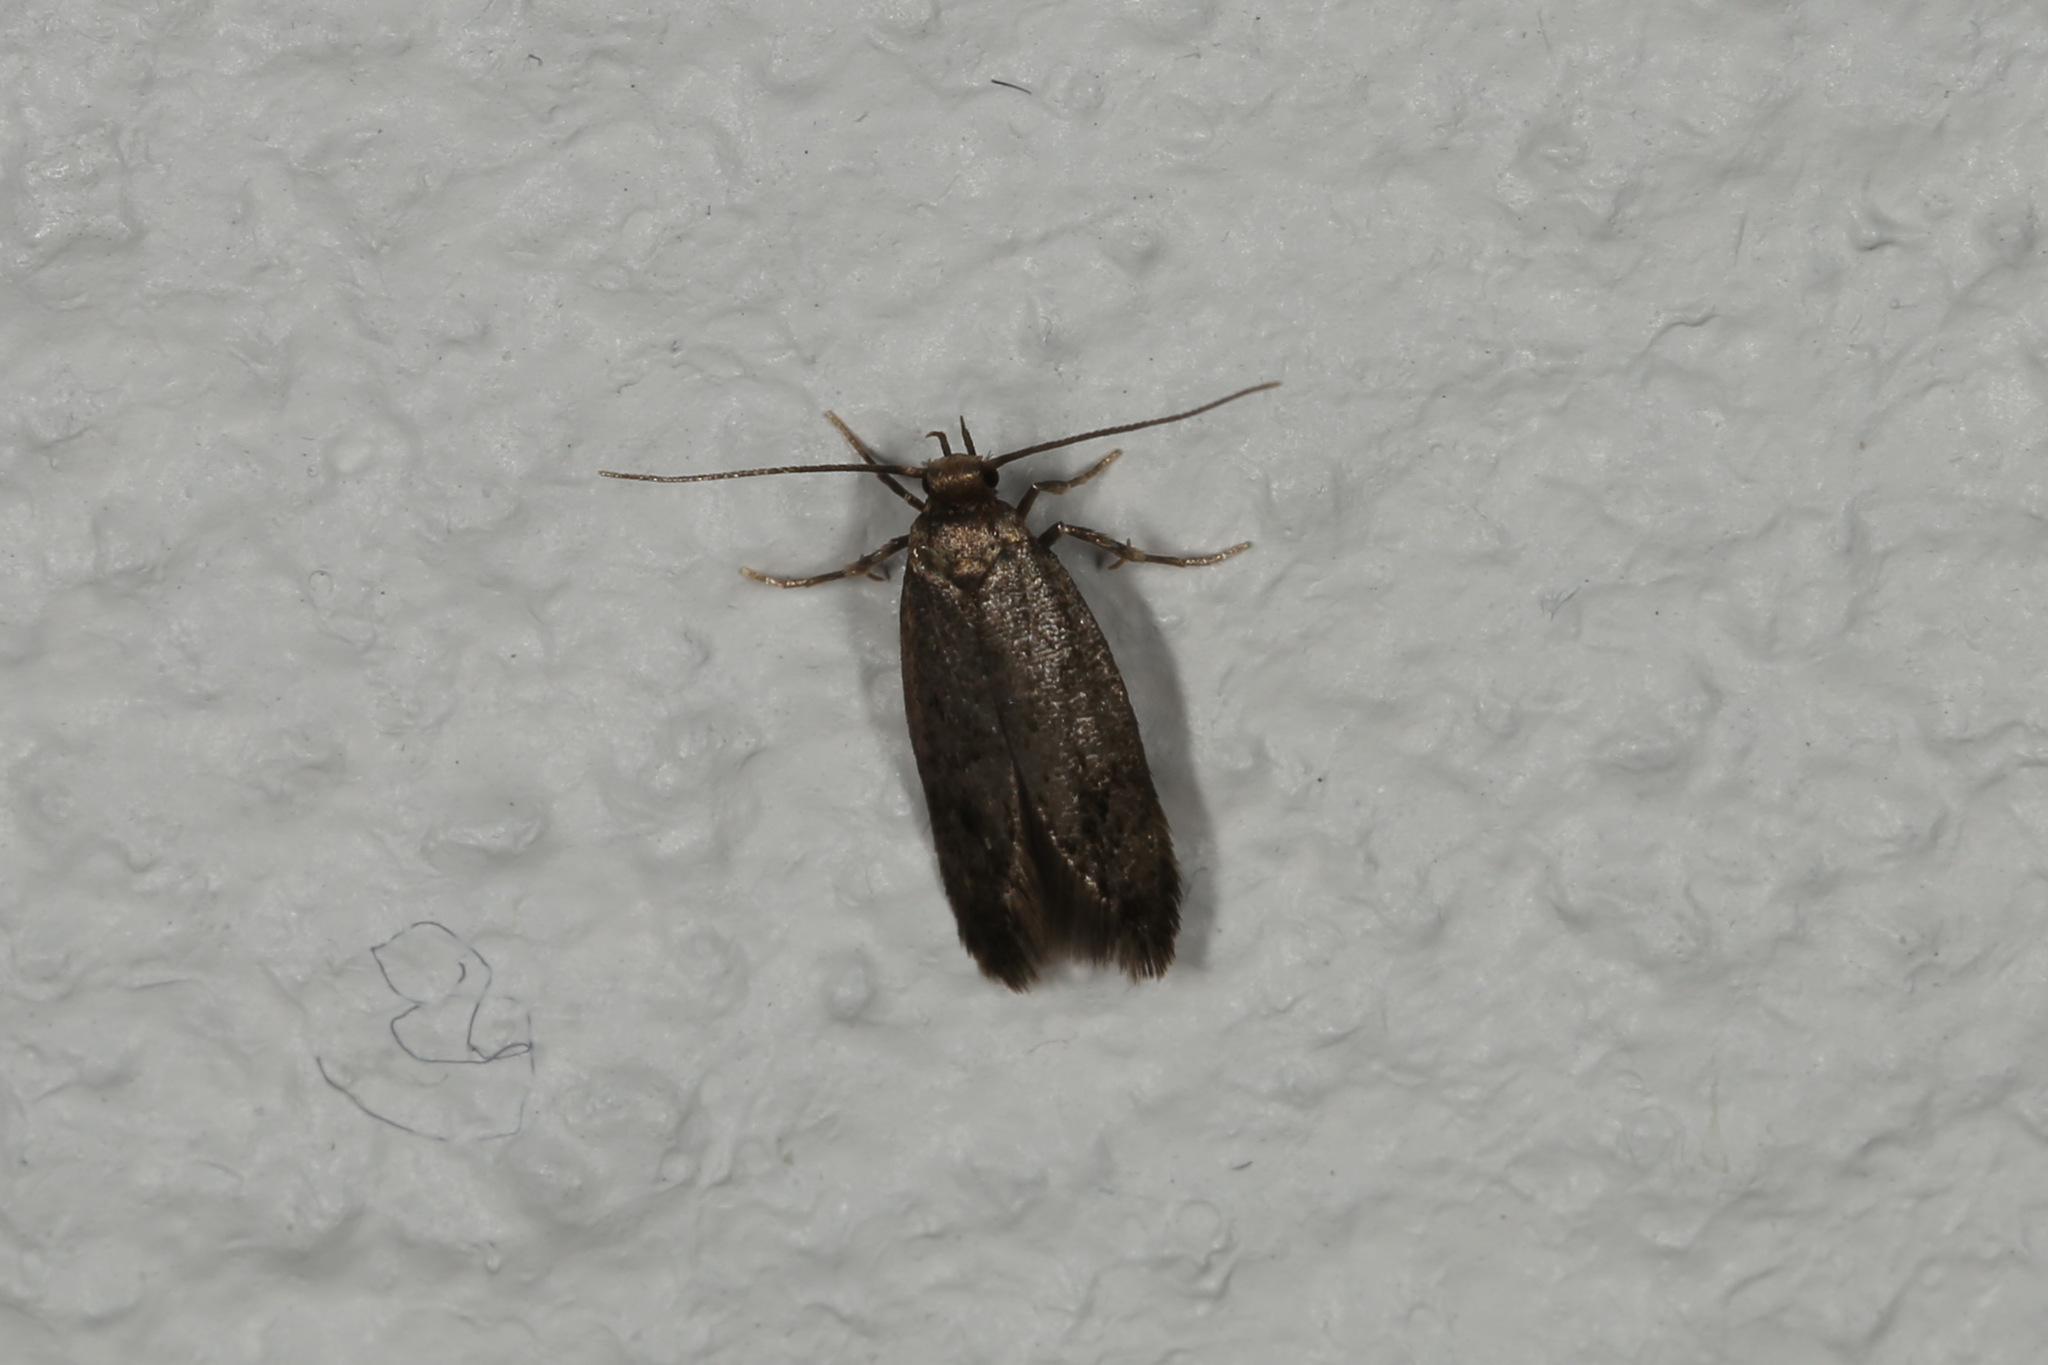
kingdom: Animalia
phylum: Arthropoda
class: Insecta
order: Lepidoptera
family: Oecophoridae
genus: Borkhausenia
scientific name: Borkhausenia fuscescens
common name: Small dingy tubic
